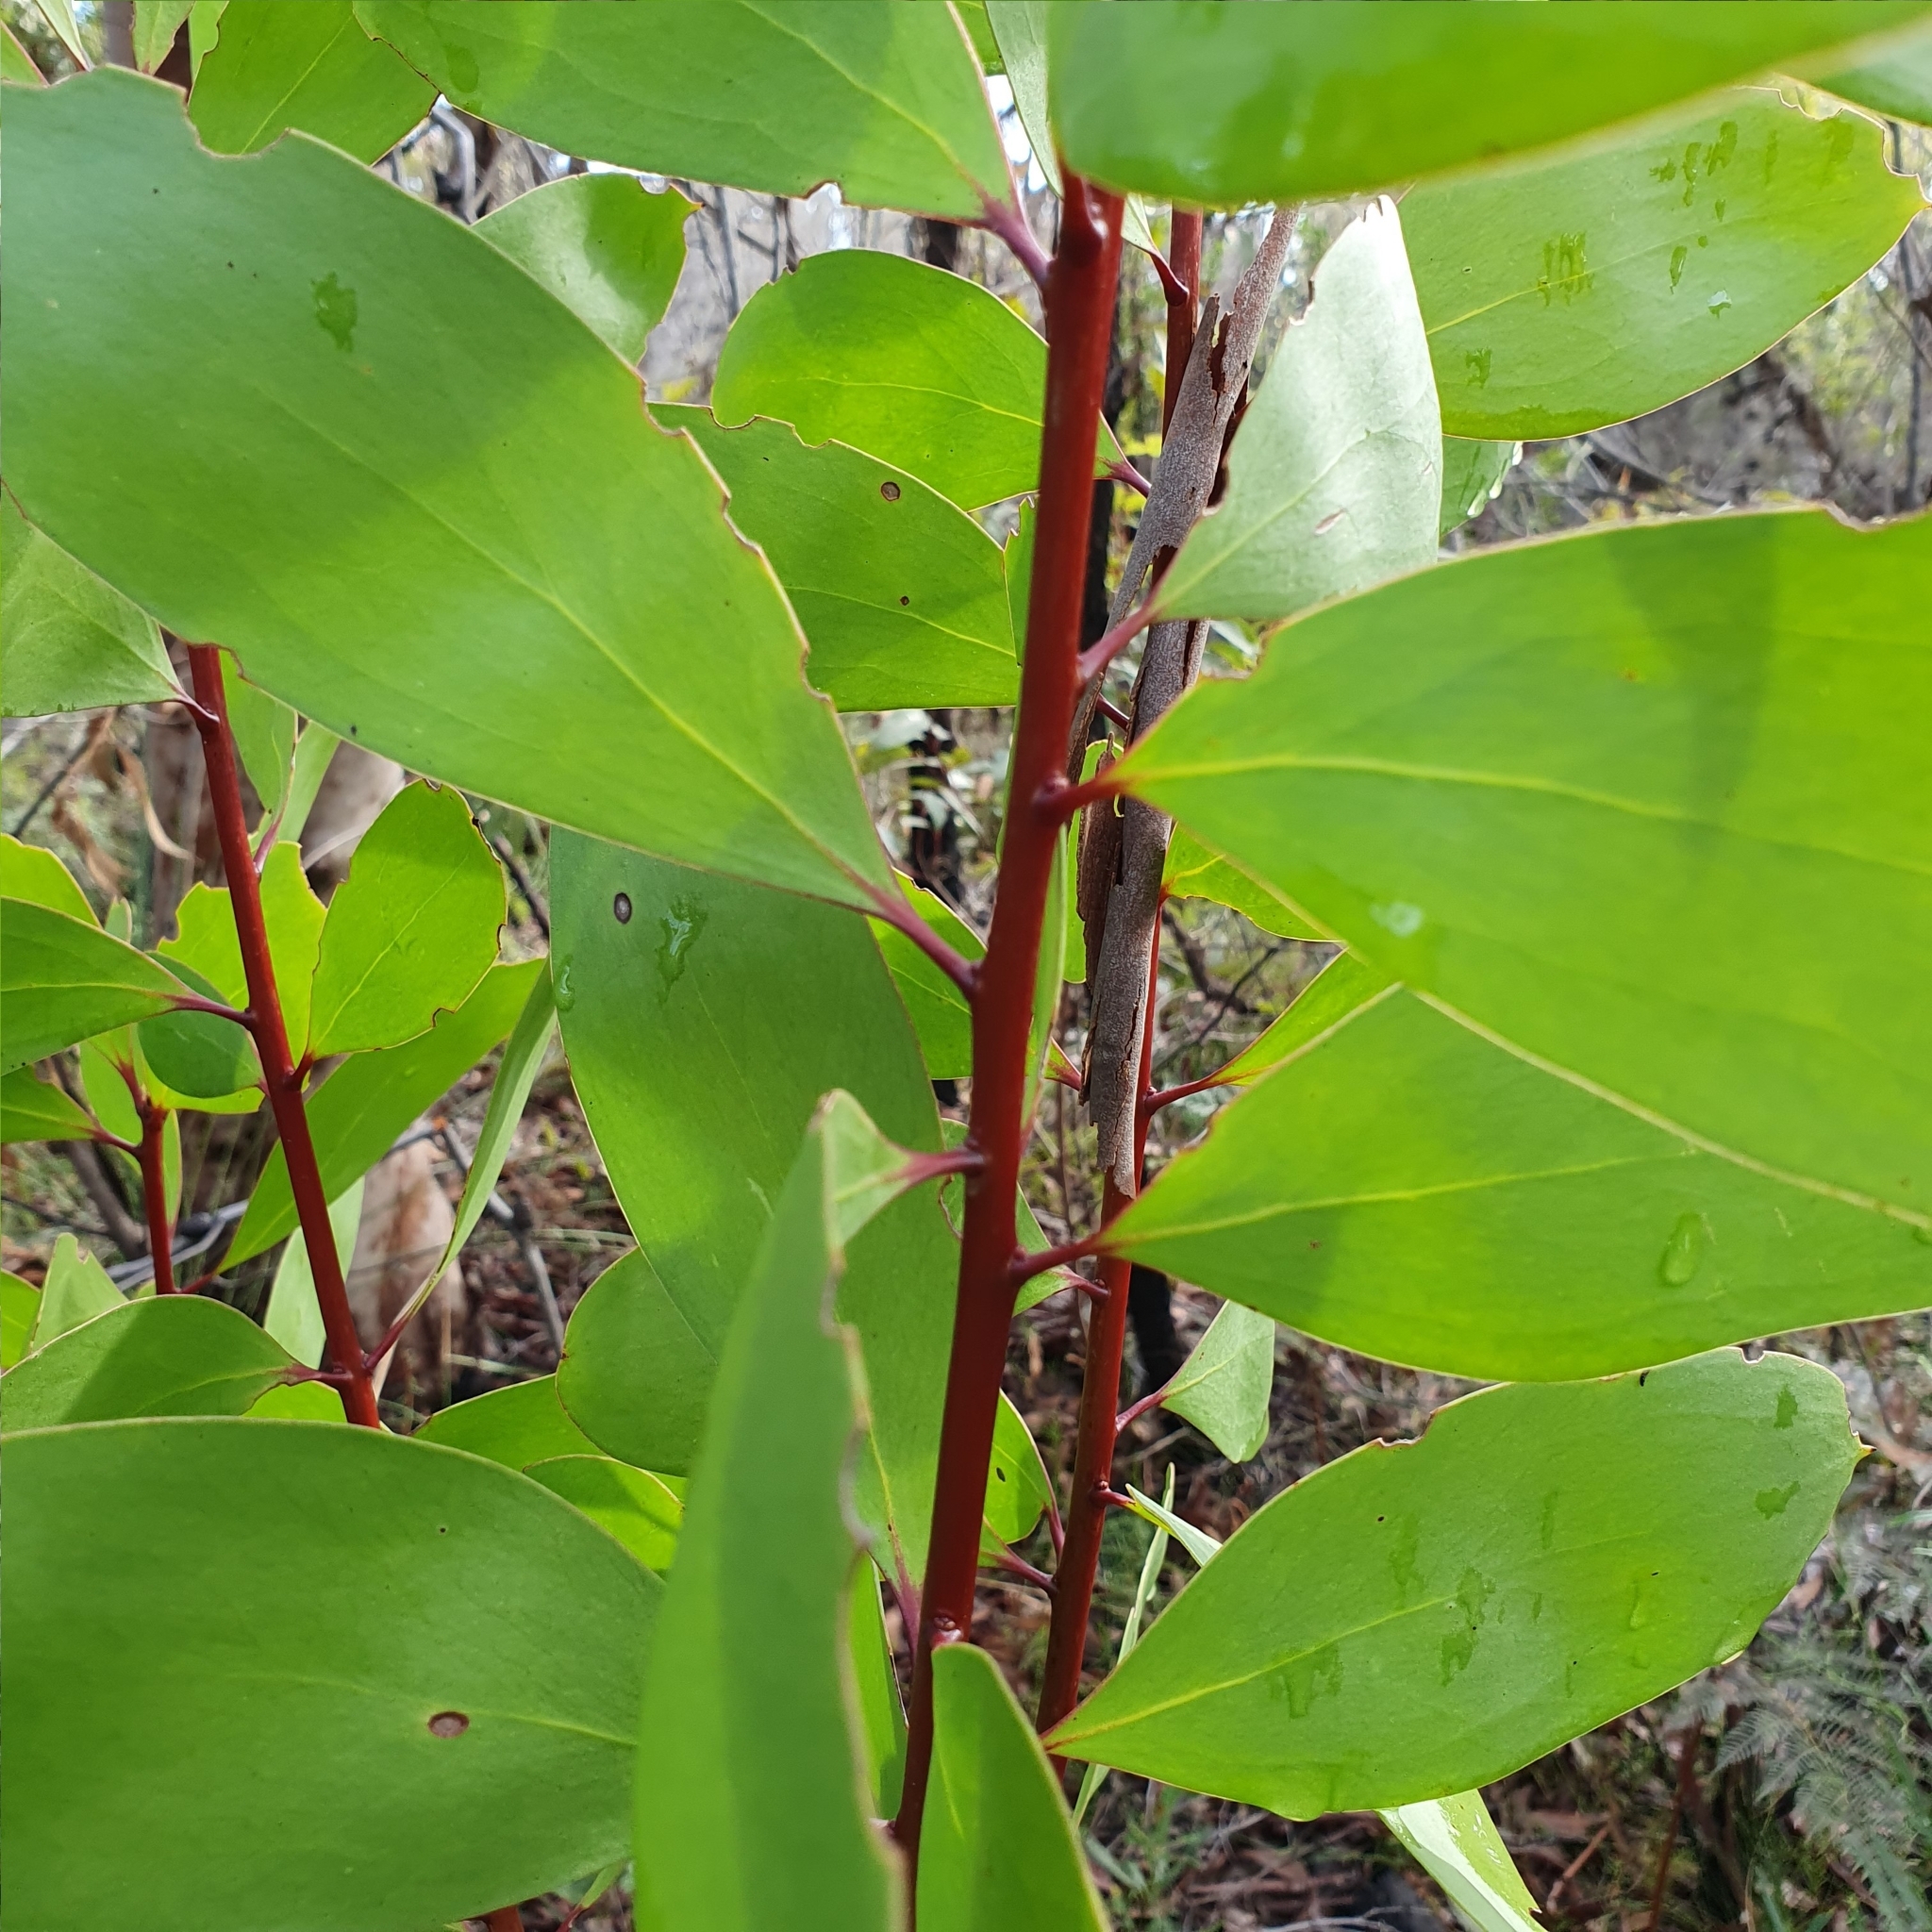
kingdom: Plantae
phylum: Tracheophyta
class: Magnoliopsida
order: Proteales
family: Proteaceae
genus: Persoonia
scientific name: Persoonia levis
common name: Smooth geebung
